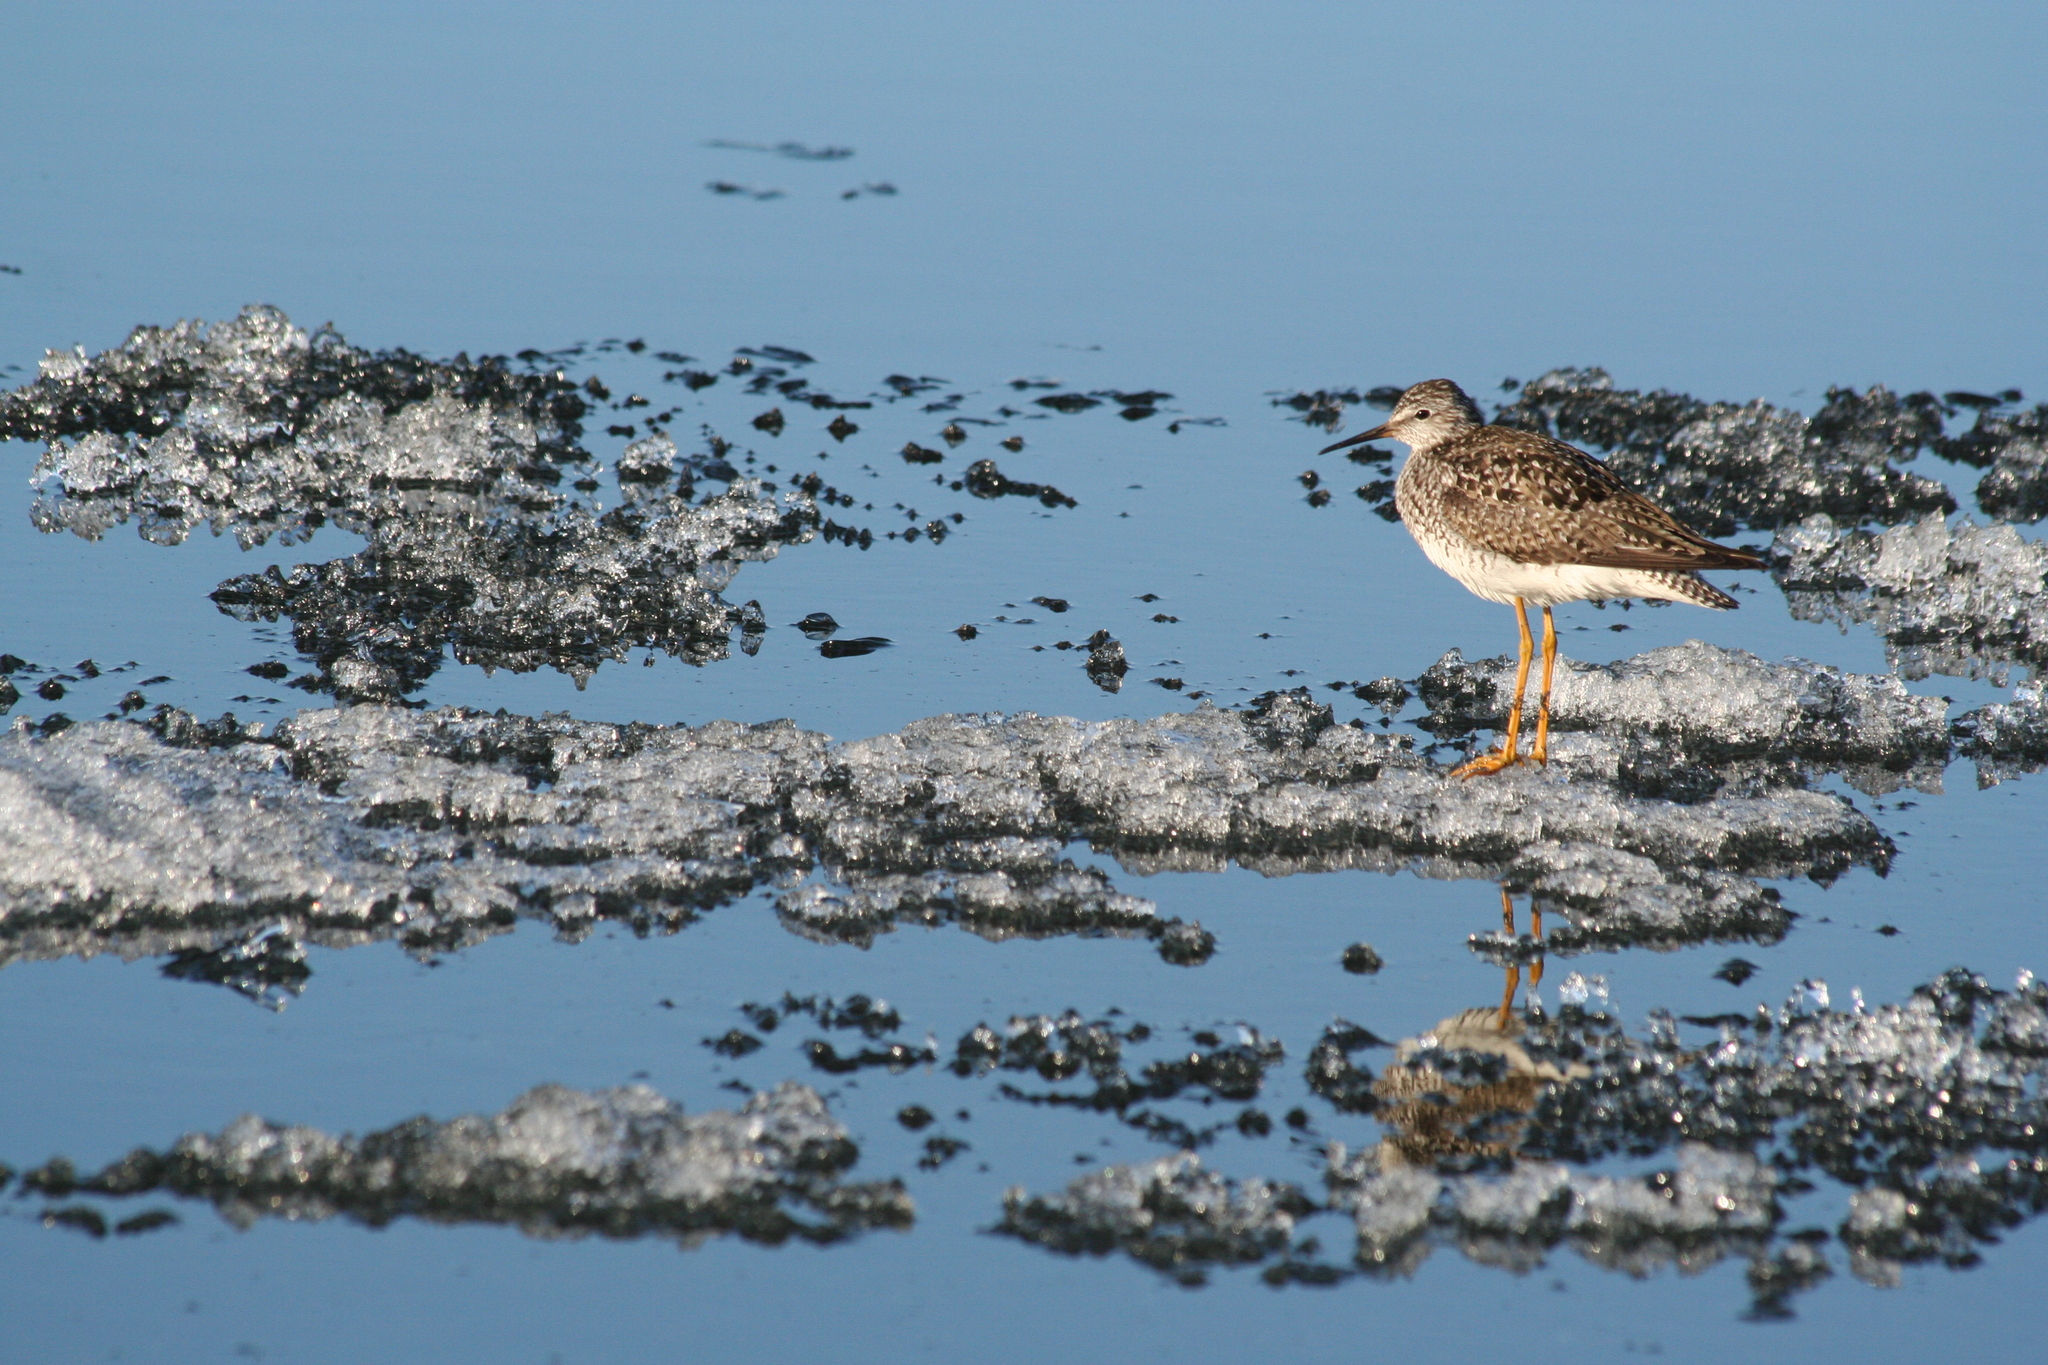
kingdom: Animalia
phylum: Chordata
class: Aves
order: Charadriiformes
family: Scolopacidae
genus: Tringa
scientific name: Tringa flavipes
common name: Lesser yellowlegs
